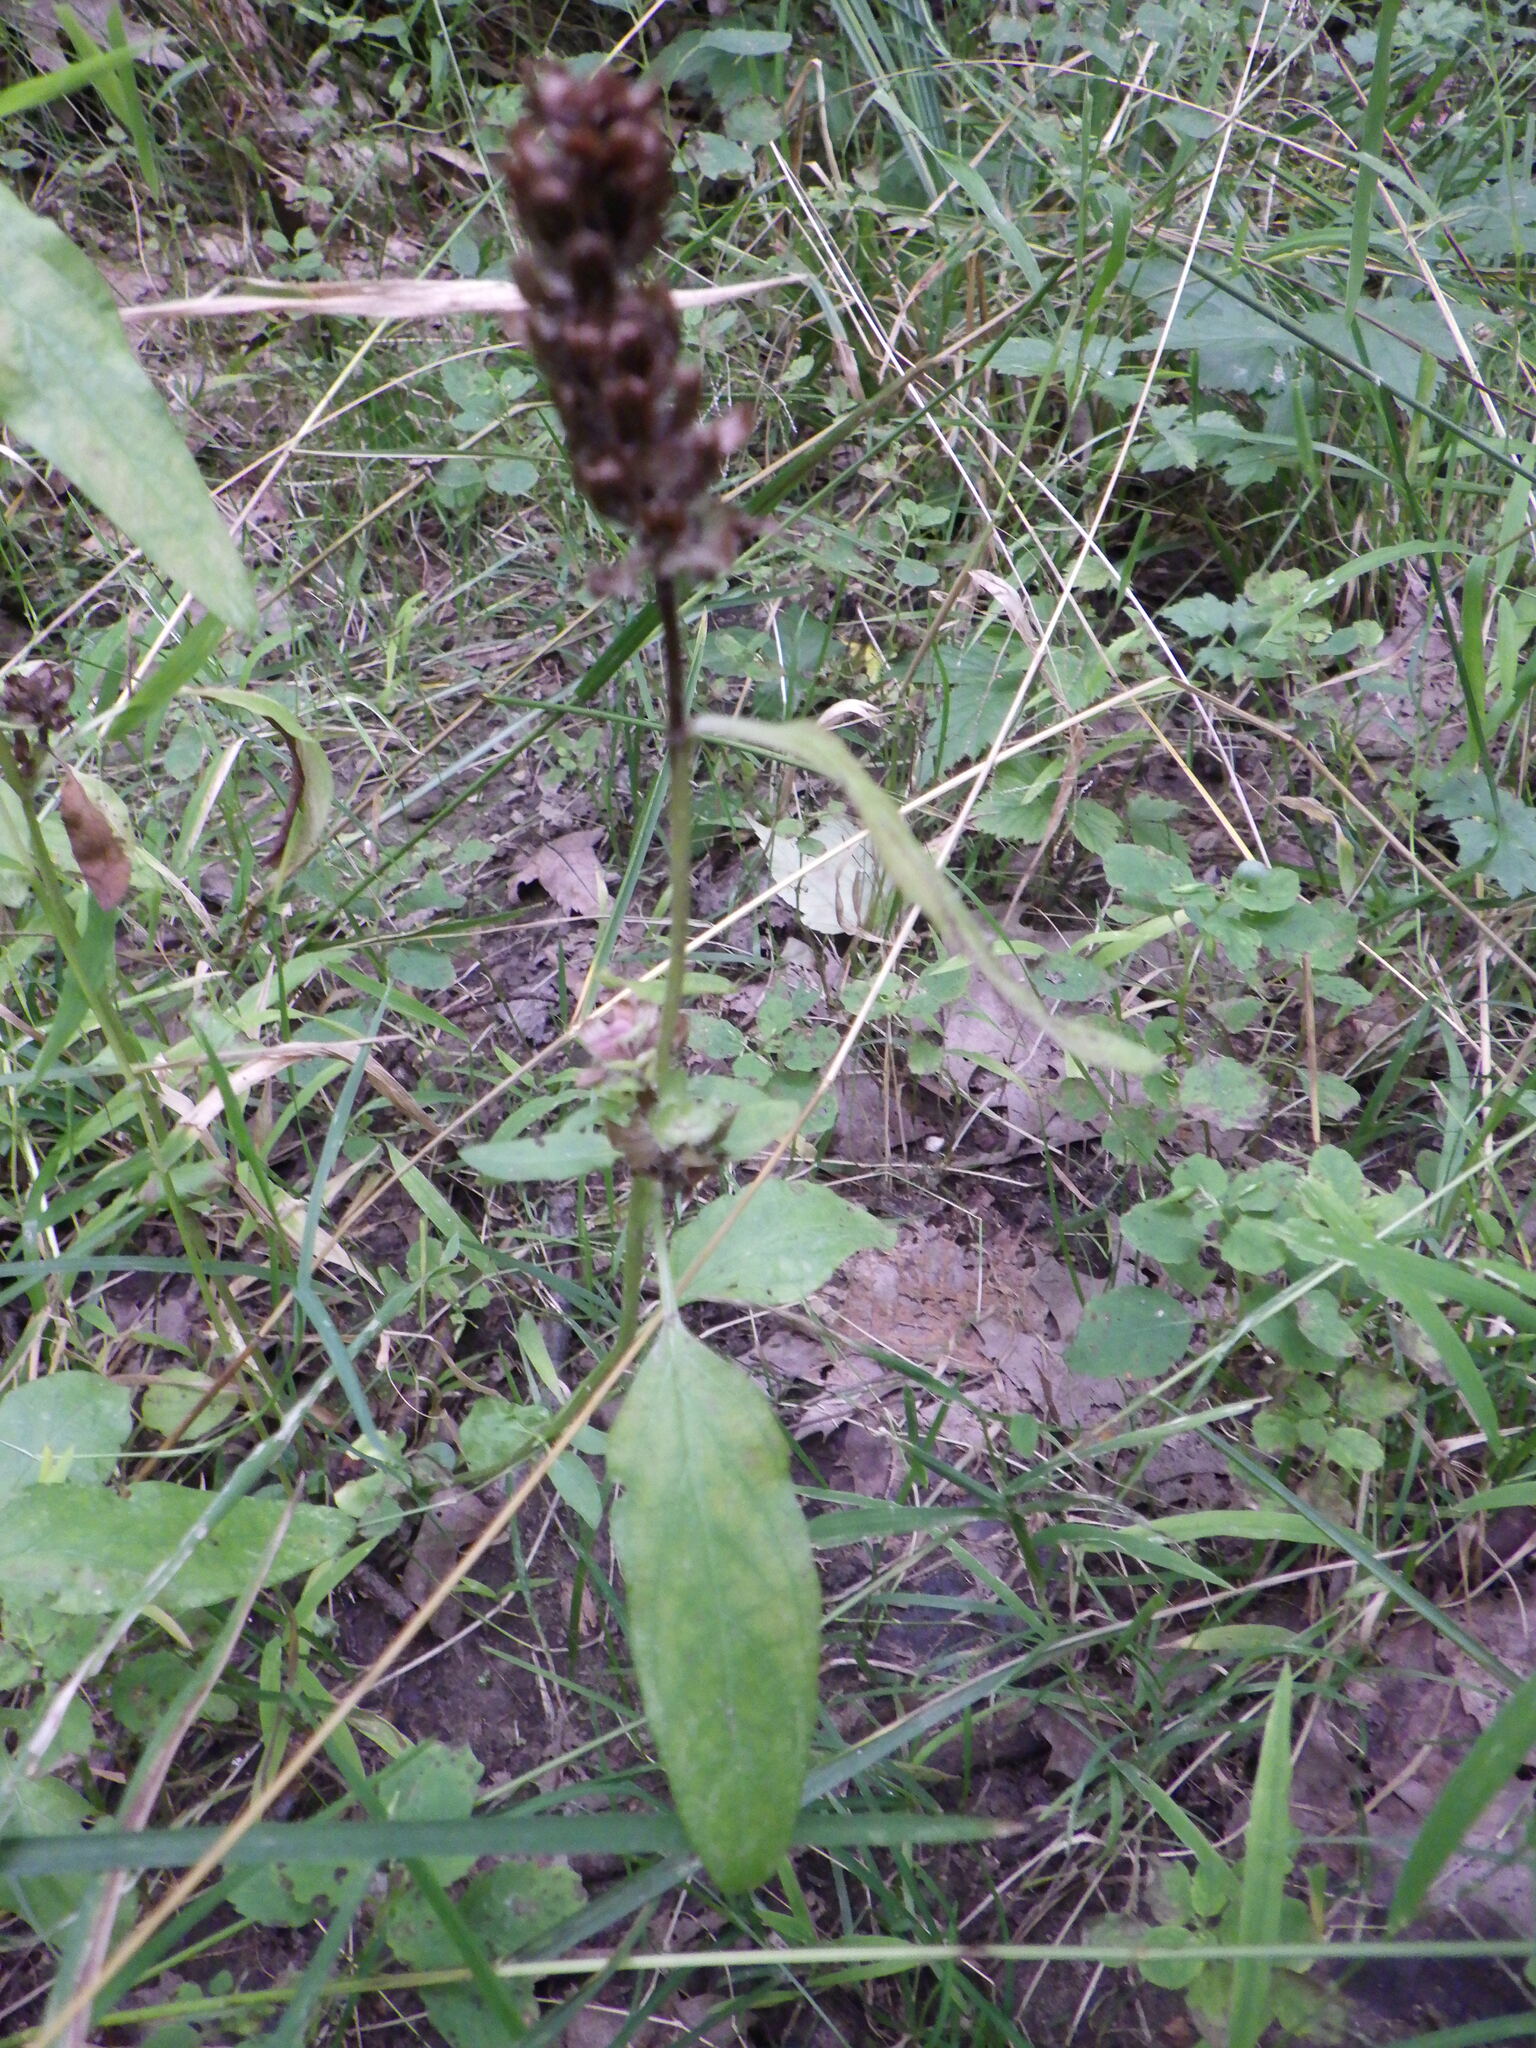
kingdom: Plantae
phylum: Tracheophyta
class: Magnoliopsida
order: Lamiales
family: Lamiaceae
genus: Prunella
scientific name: Prunella vulgaris
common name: Heal-all
